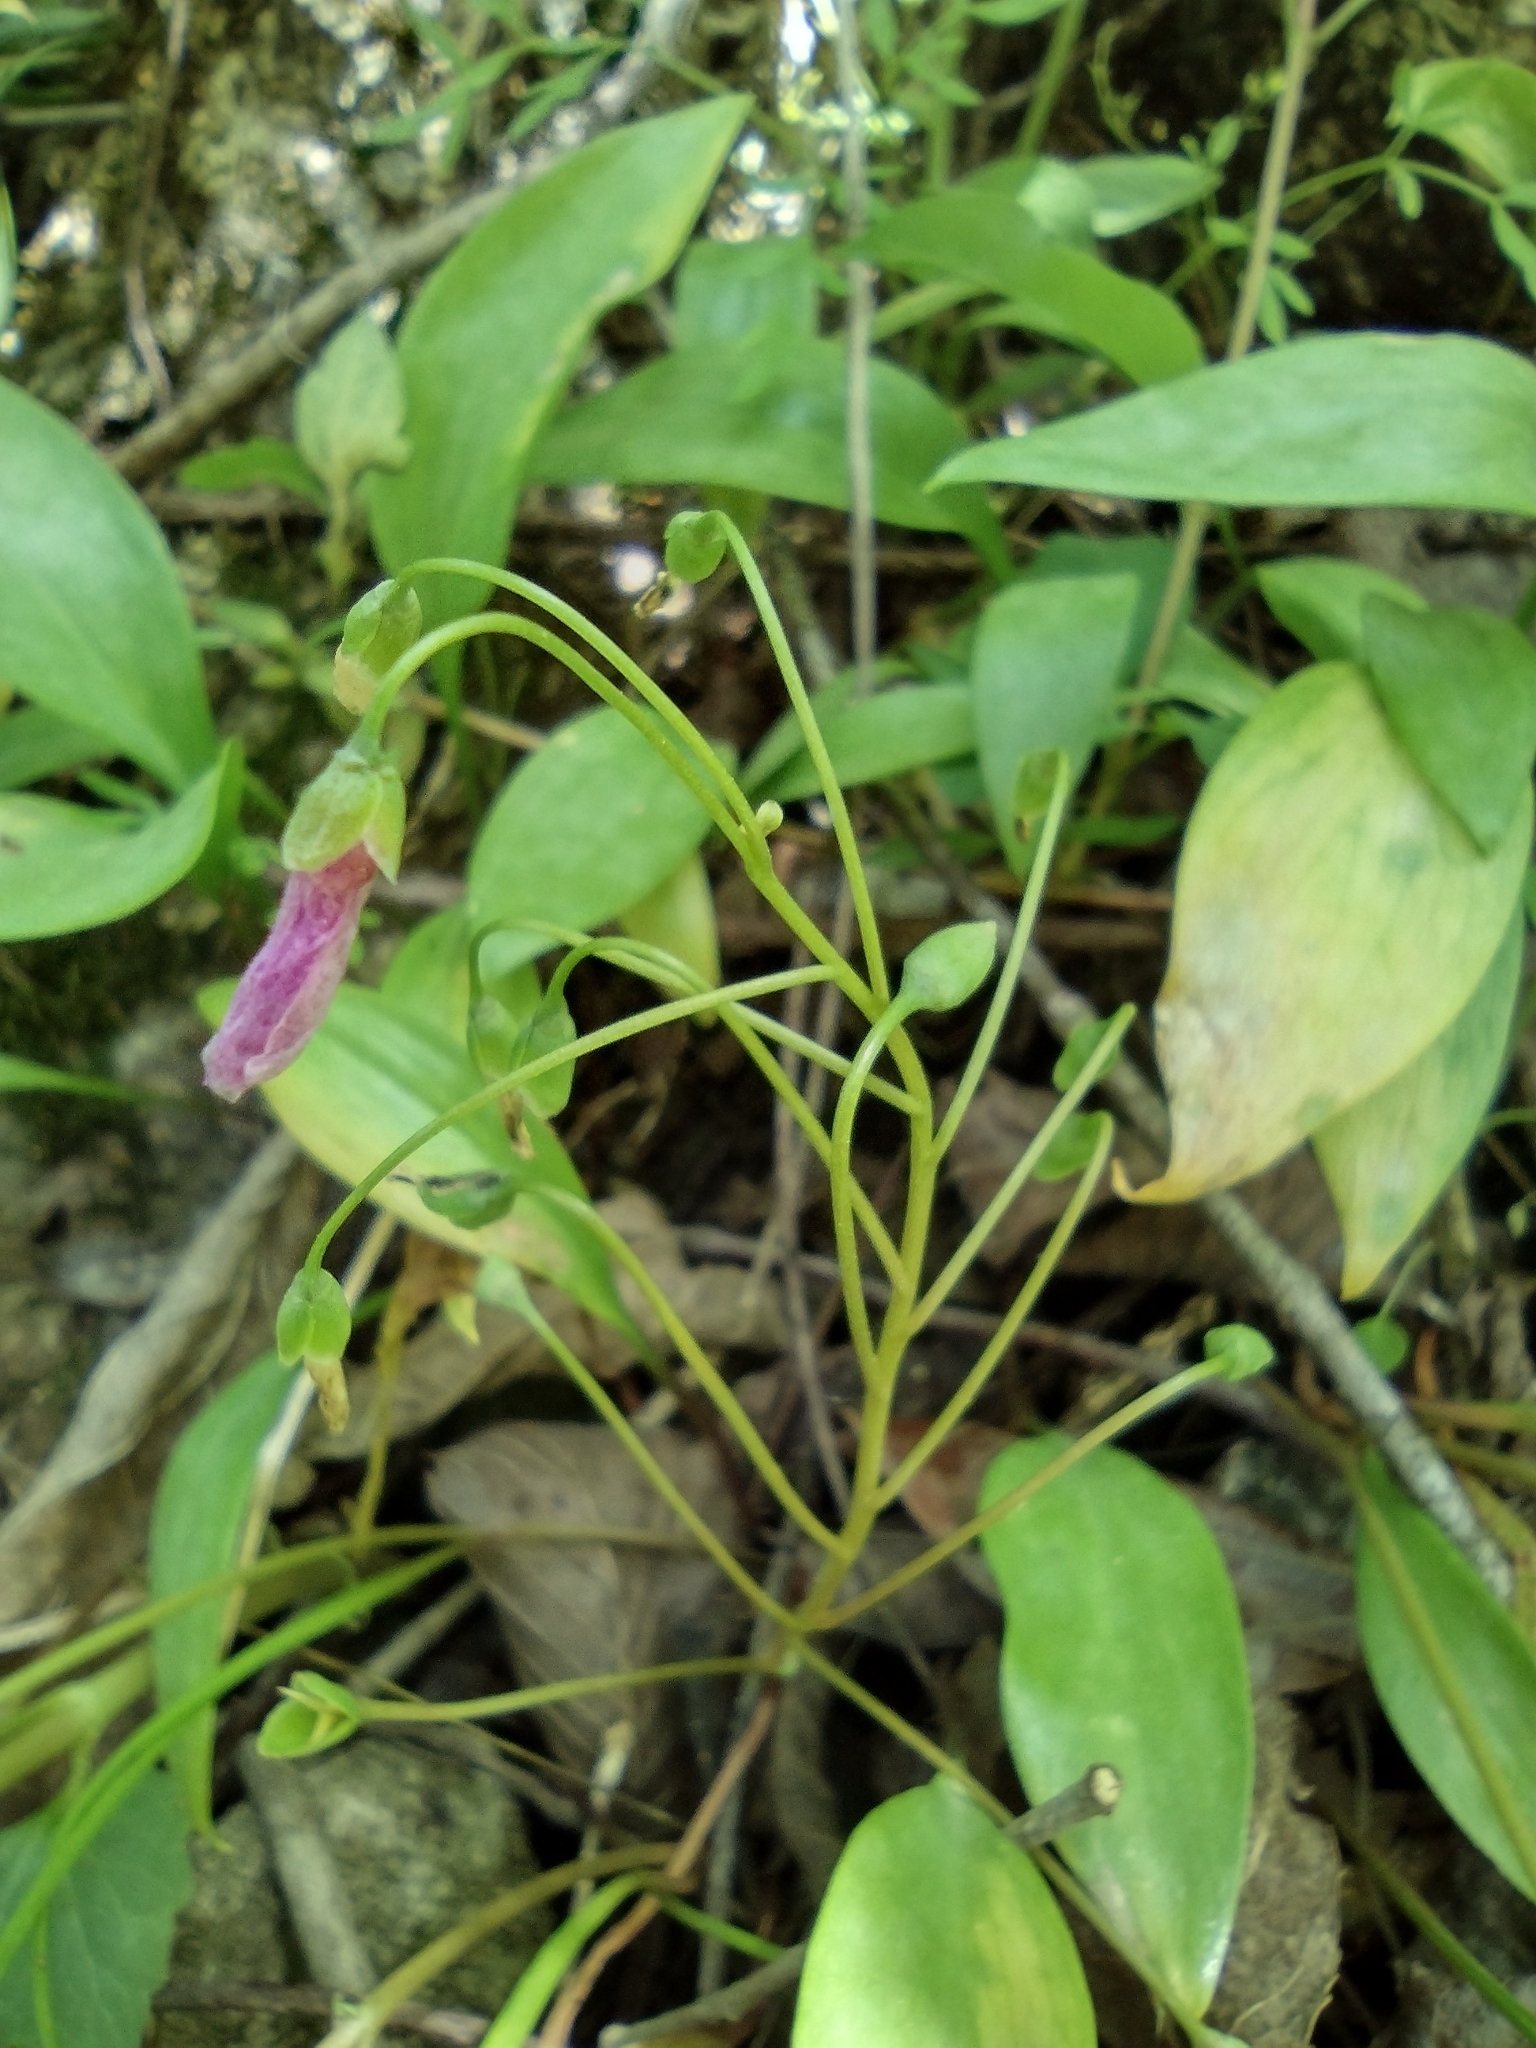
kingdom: Plantae
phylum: Tracheophyta
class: Magnoliopsida
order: Caryophyllales
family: Montiaceae
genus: Claytonia
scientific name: Claytonia virginica
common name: Virginia springbeauty
